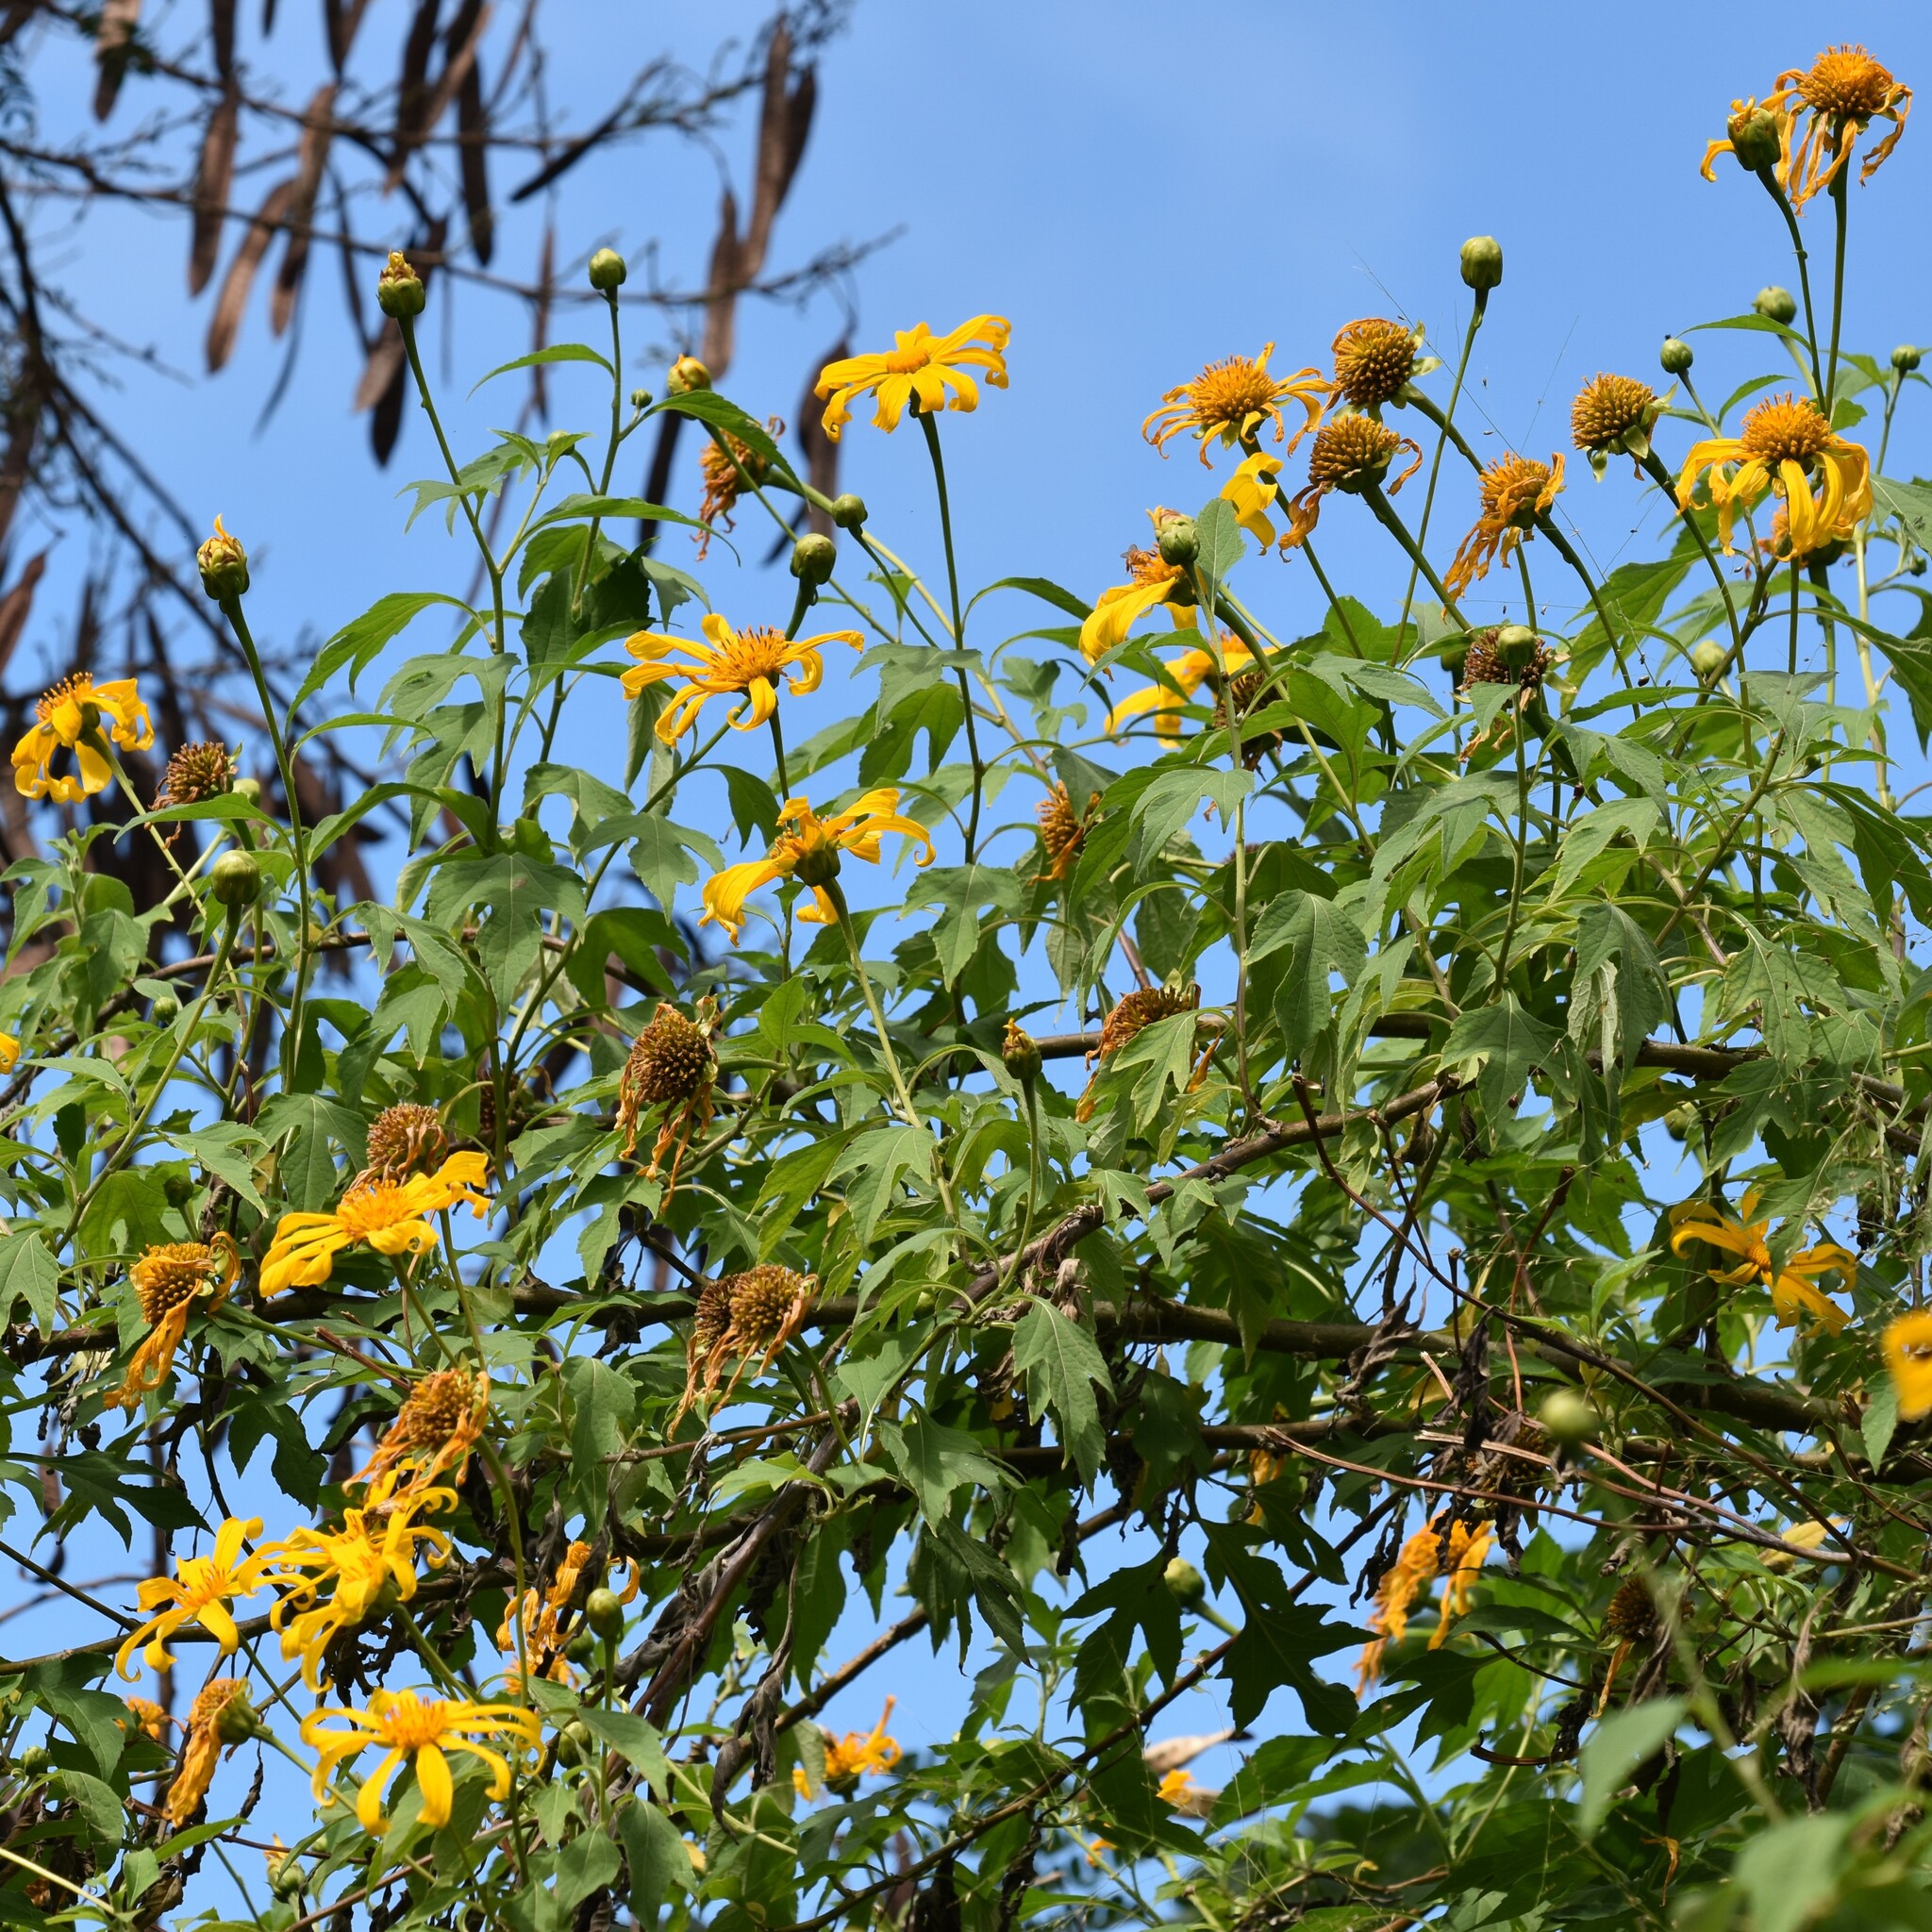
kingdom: Plantae
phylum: Tracheophyta
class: Magnoliopsida
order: Asterales
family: Asteraceae
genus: Tithonia
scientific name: Tithonia diversifolia
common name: Tree marigold
